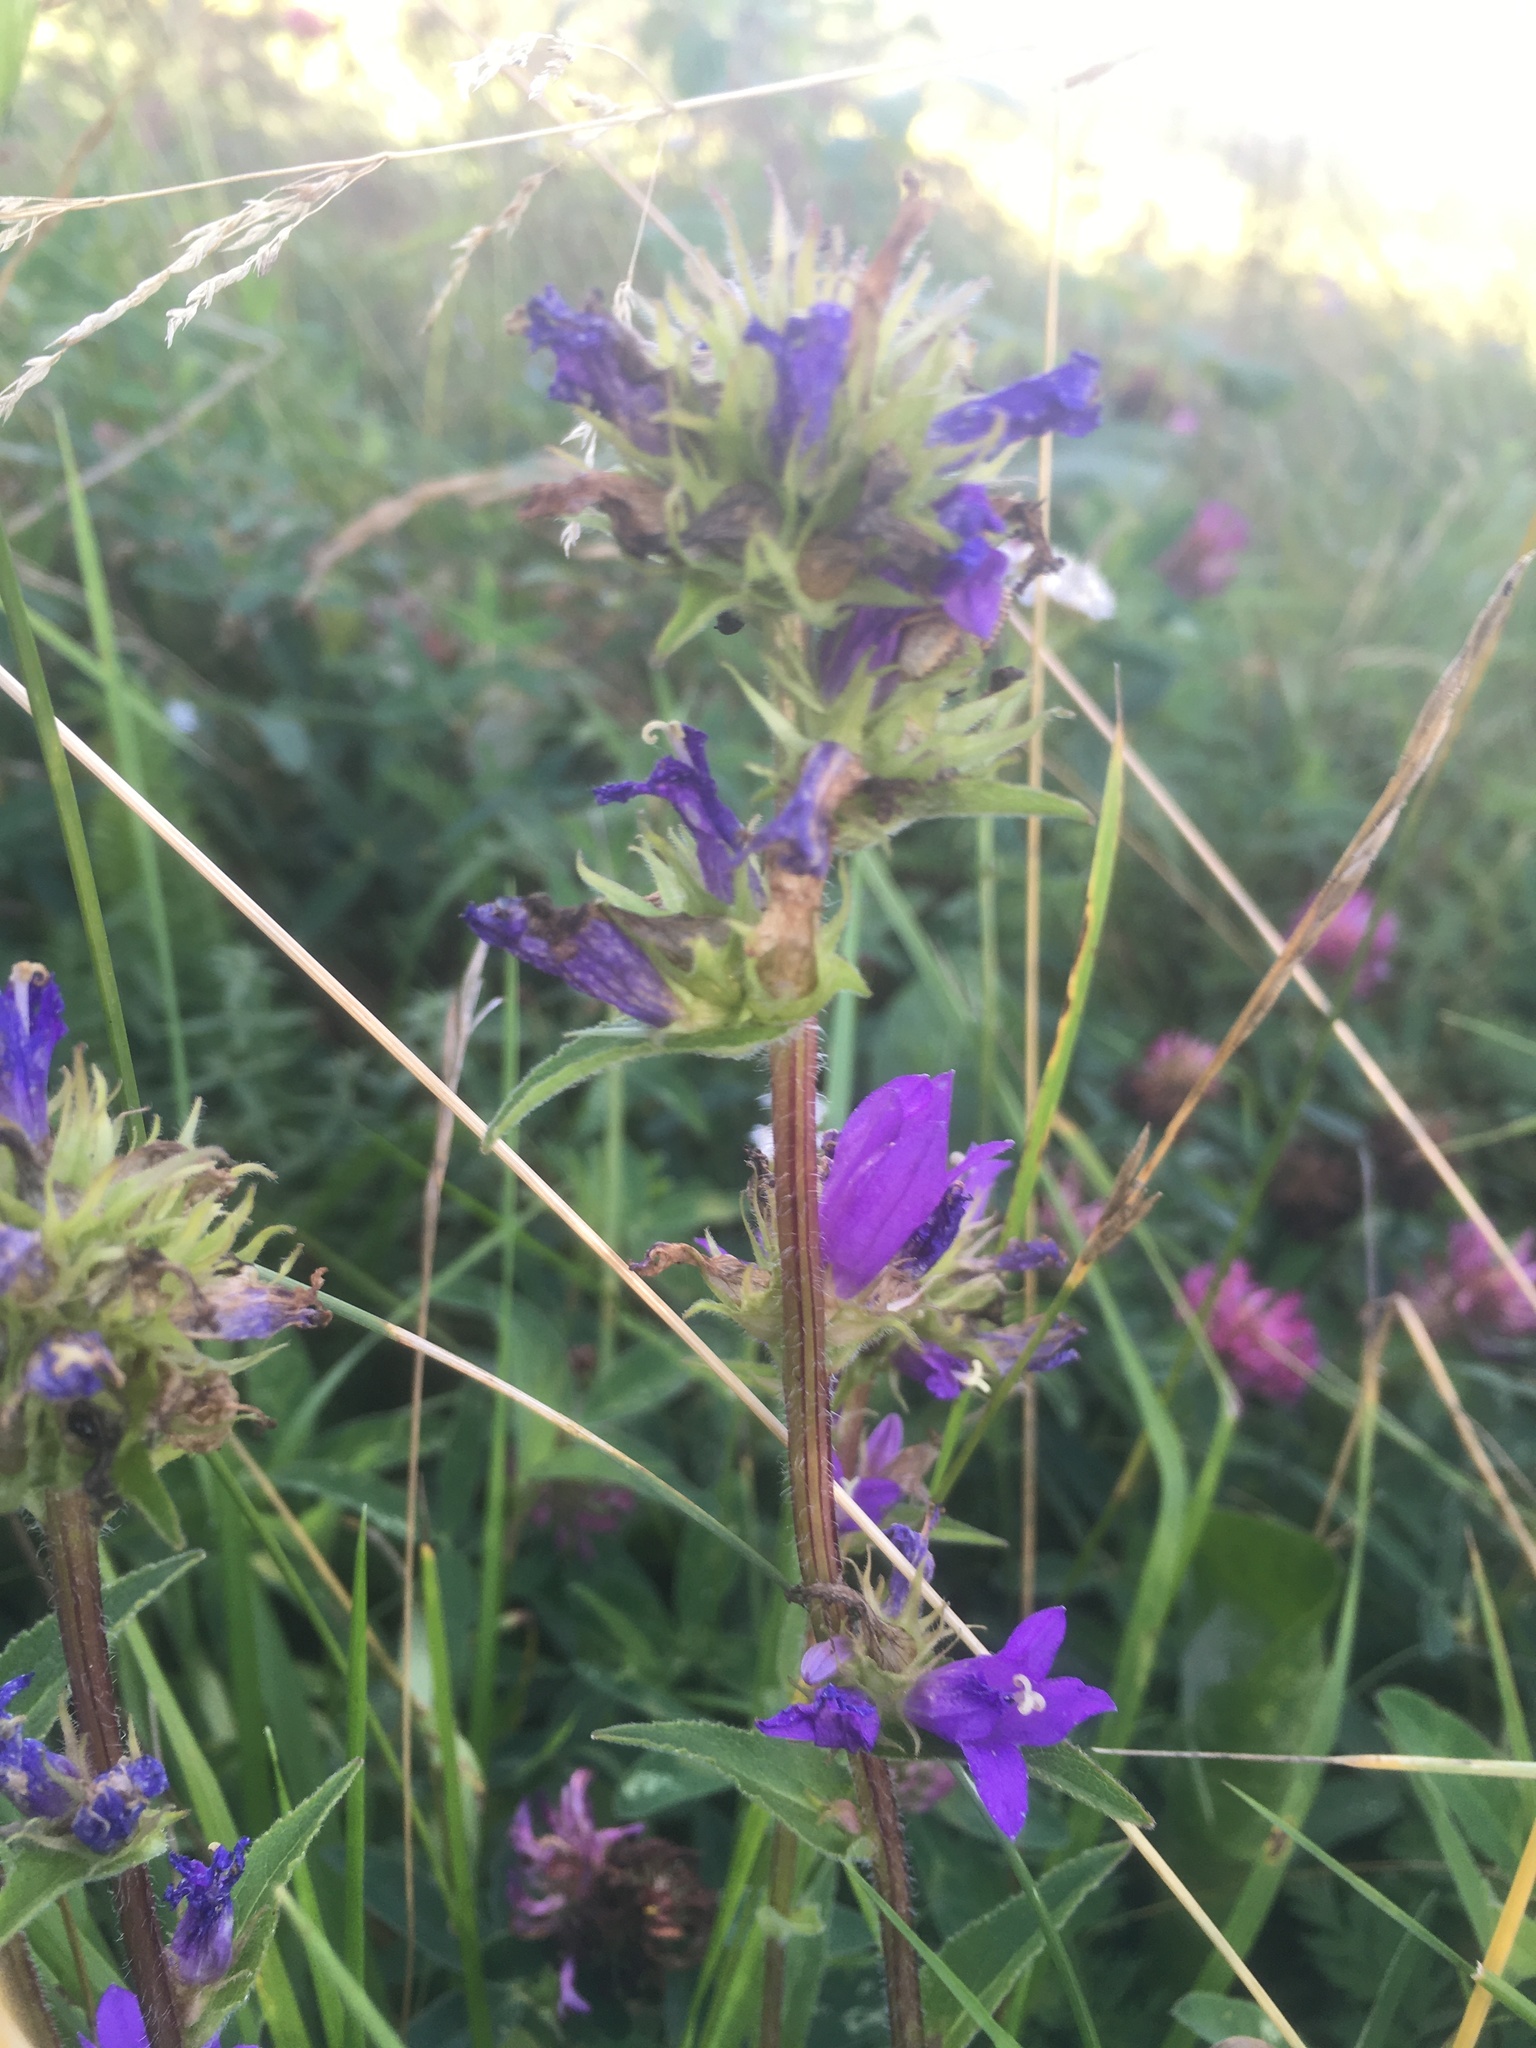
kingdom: Plantae
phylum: Tracheophyta
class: Magnoliopsida
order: Asterales
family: Campanulaceae
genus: Campanula
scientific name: Campanula glomerata
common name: Clustered bellflower
